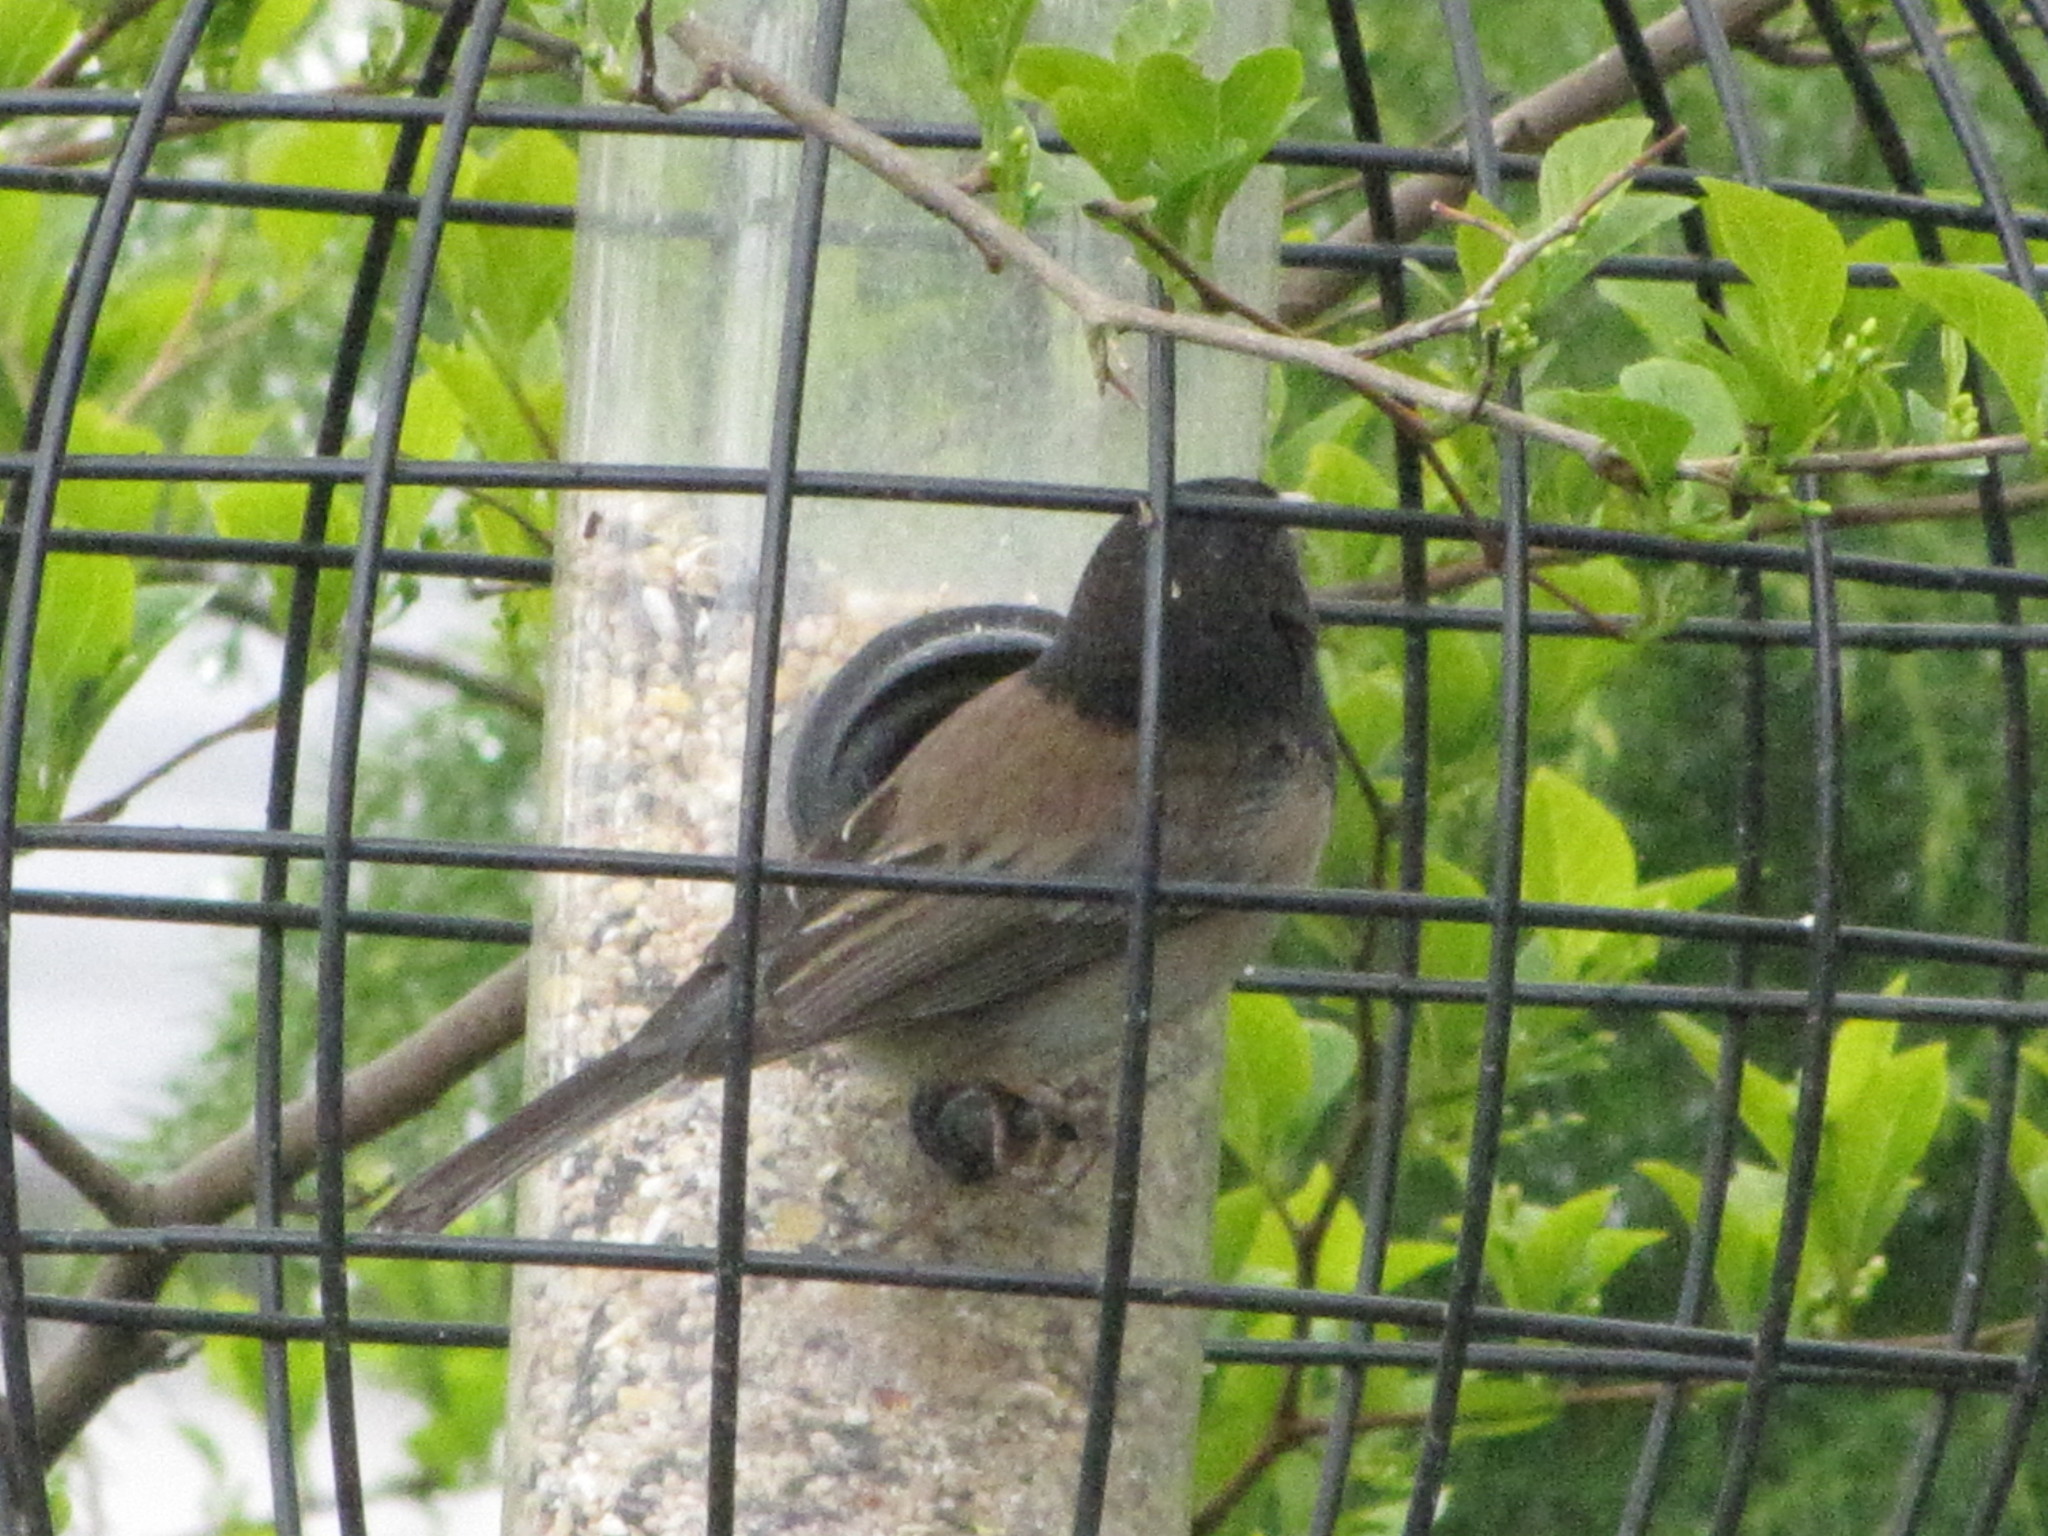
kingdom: Animalia
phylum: Chordata
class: Aves
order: Passeriformes
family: Passerellidae
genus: Junco
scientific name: Junco hyemalis
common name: Dark-eyed junco
